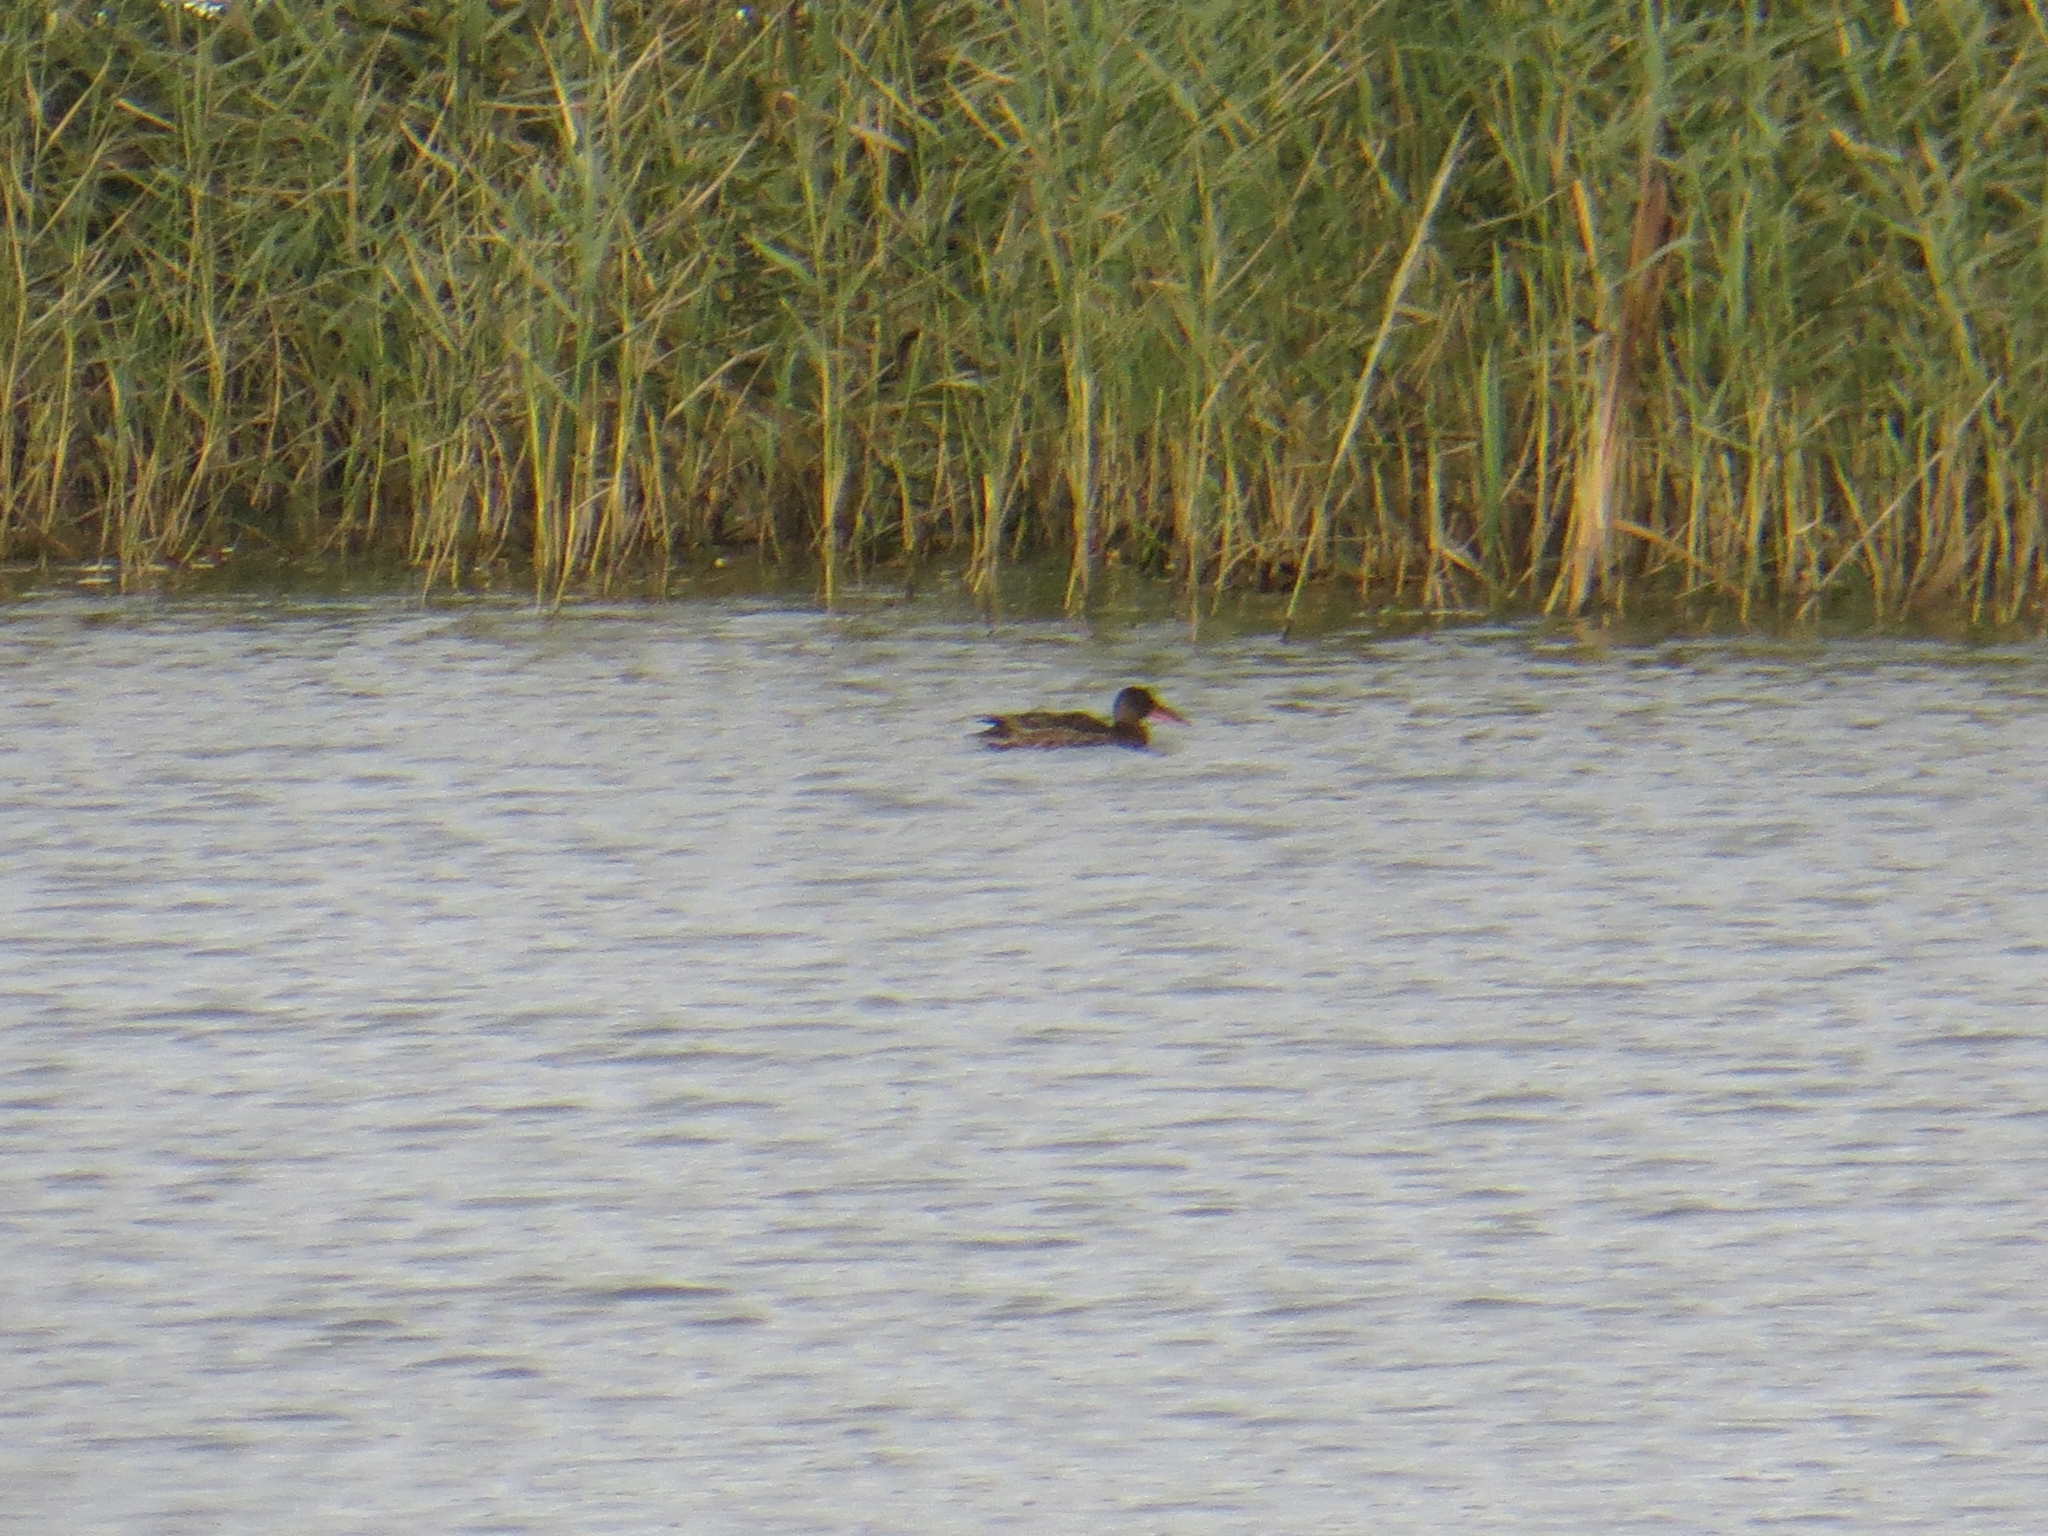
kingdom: Animalia
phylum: Chordata
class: Aves
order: Anseriformes
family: Anatidae
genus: Spatula
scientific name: Spatula clypeata
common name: Northern shoveler
